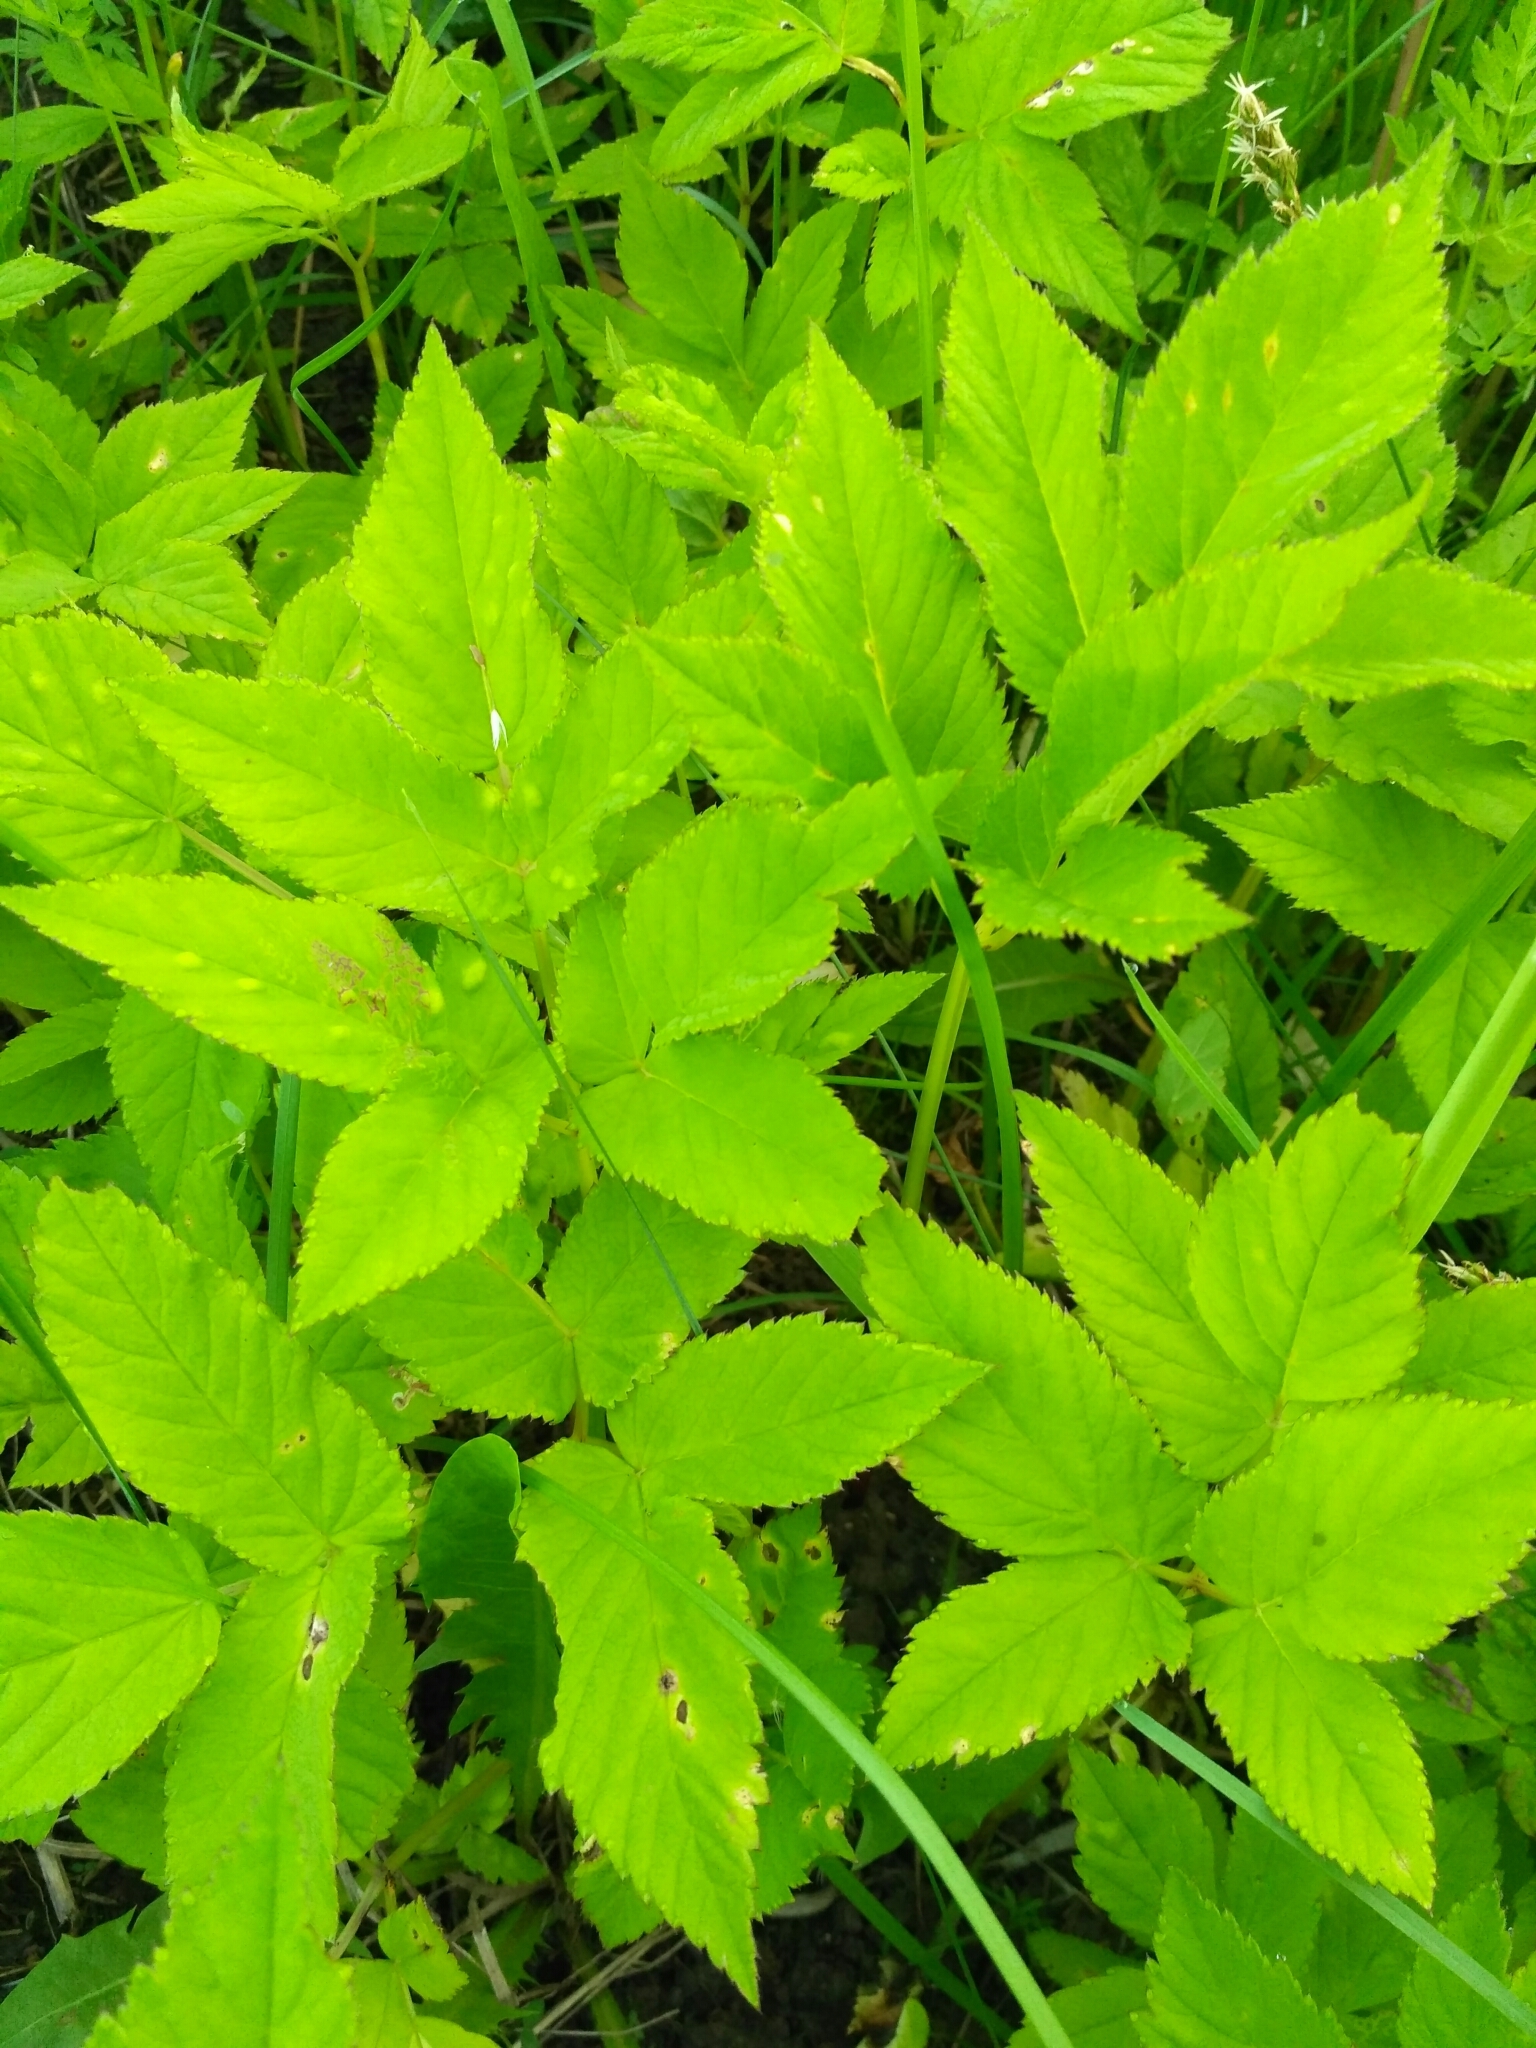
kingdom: Plantae
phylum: Tracheophyta
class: Magnoliopsida
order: Apiales
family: Apiaceae
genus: Aegopodium
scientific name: Aegopodium podagraria
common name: Ground-elder
